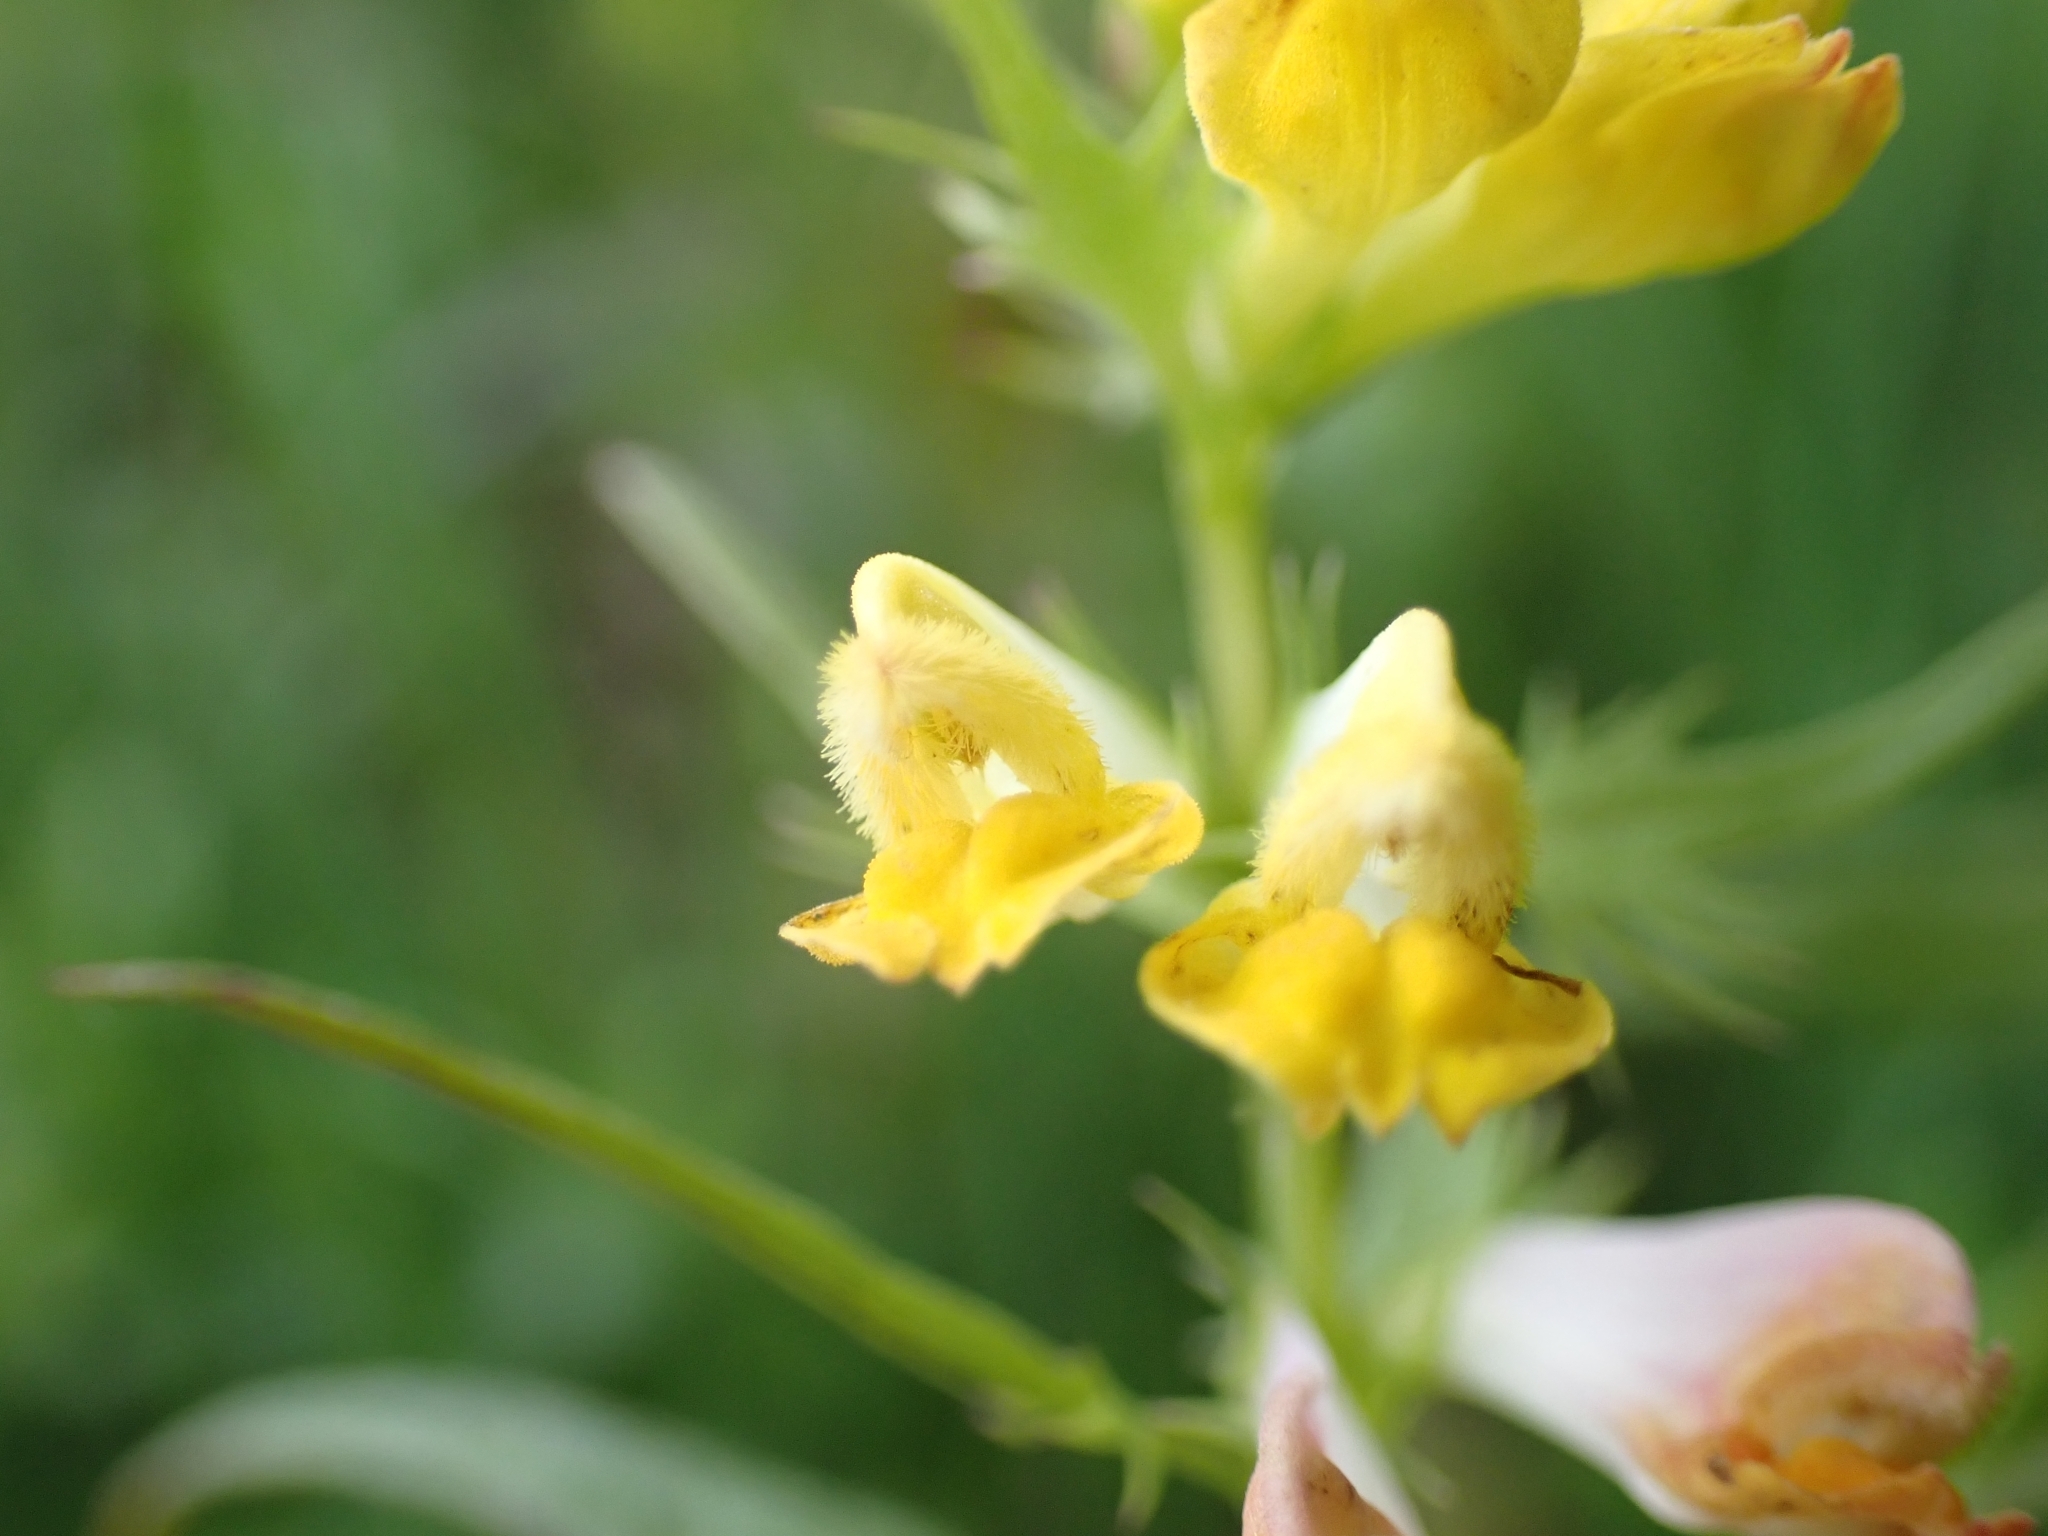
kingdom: Plantae
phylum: Tracheophyta
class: Magnoliopsida
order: Lamiales
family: Orobanchaceae
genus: Melampyrum
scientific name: Melampyrum pratense
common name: Common cow-wheat
